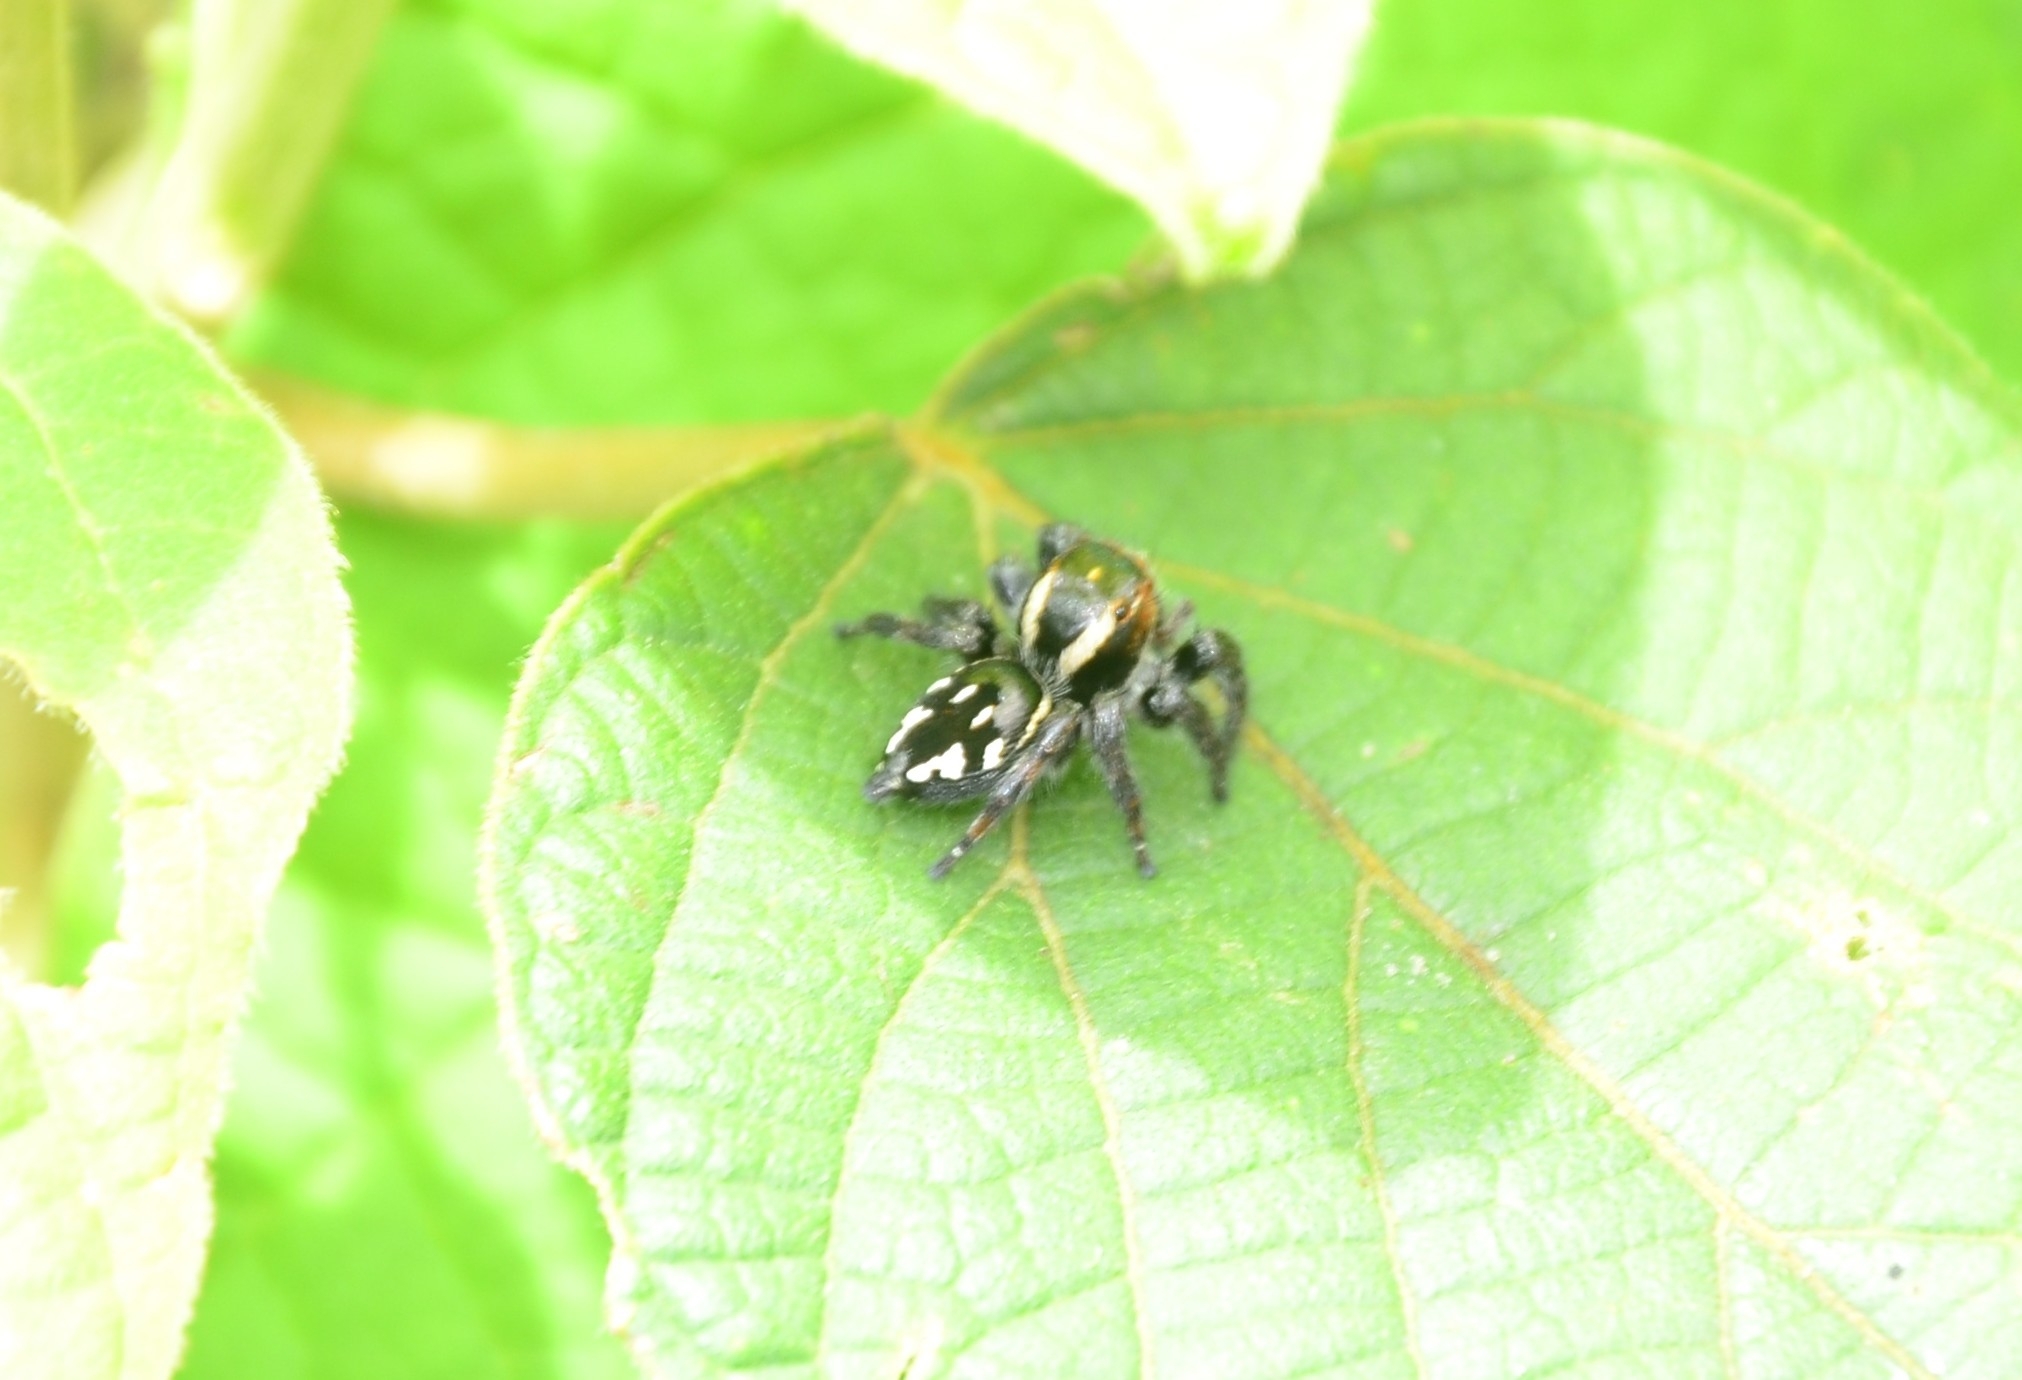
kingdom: Animalia
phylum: Arthropoda
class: Arachnida
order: Araneae
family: Salticidae
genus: Carrhotus
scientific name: Carrhotus viduus
